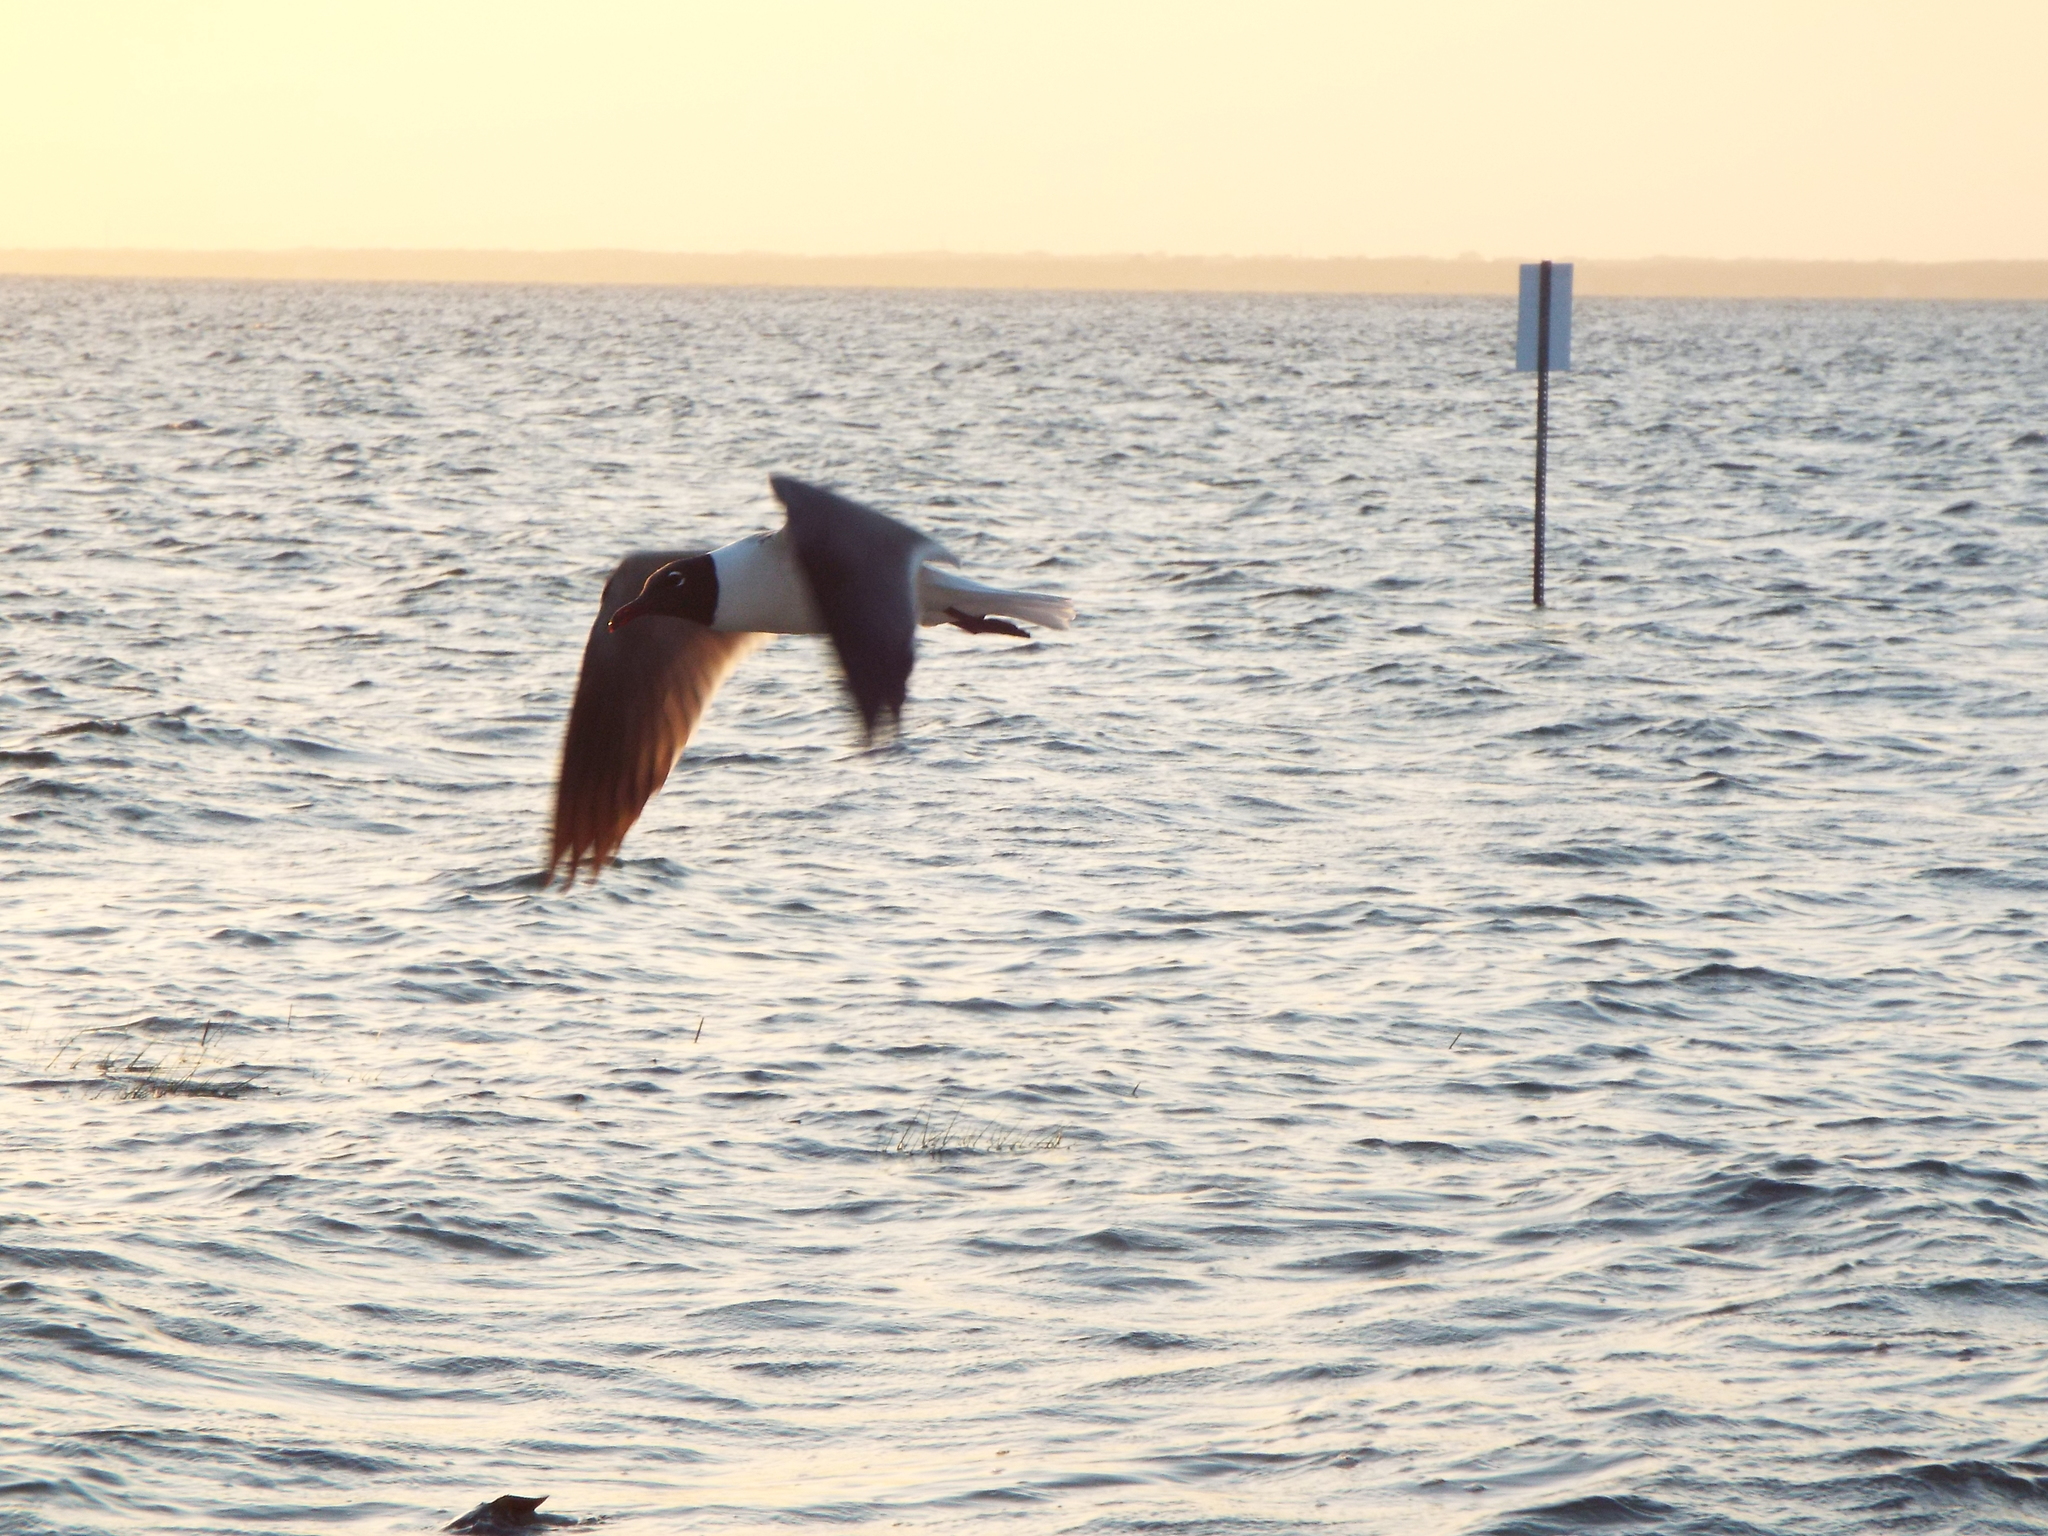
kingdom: Animalia
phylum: Chordata
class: Aves
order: Charadriiformes
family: Laridae
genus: Leucophaeus
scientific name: Leucophaeus atricilla
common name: Laughing gull
